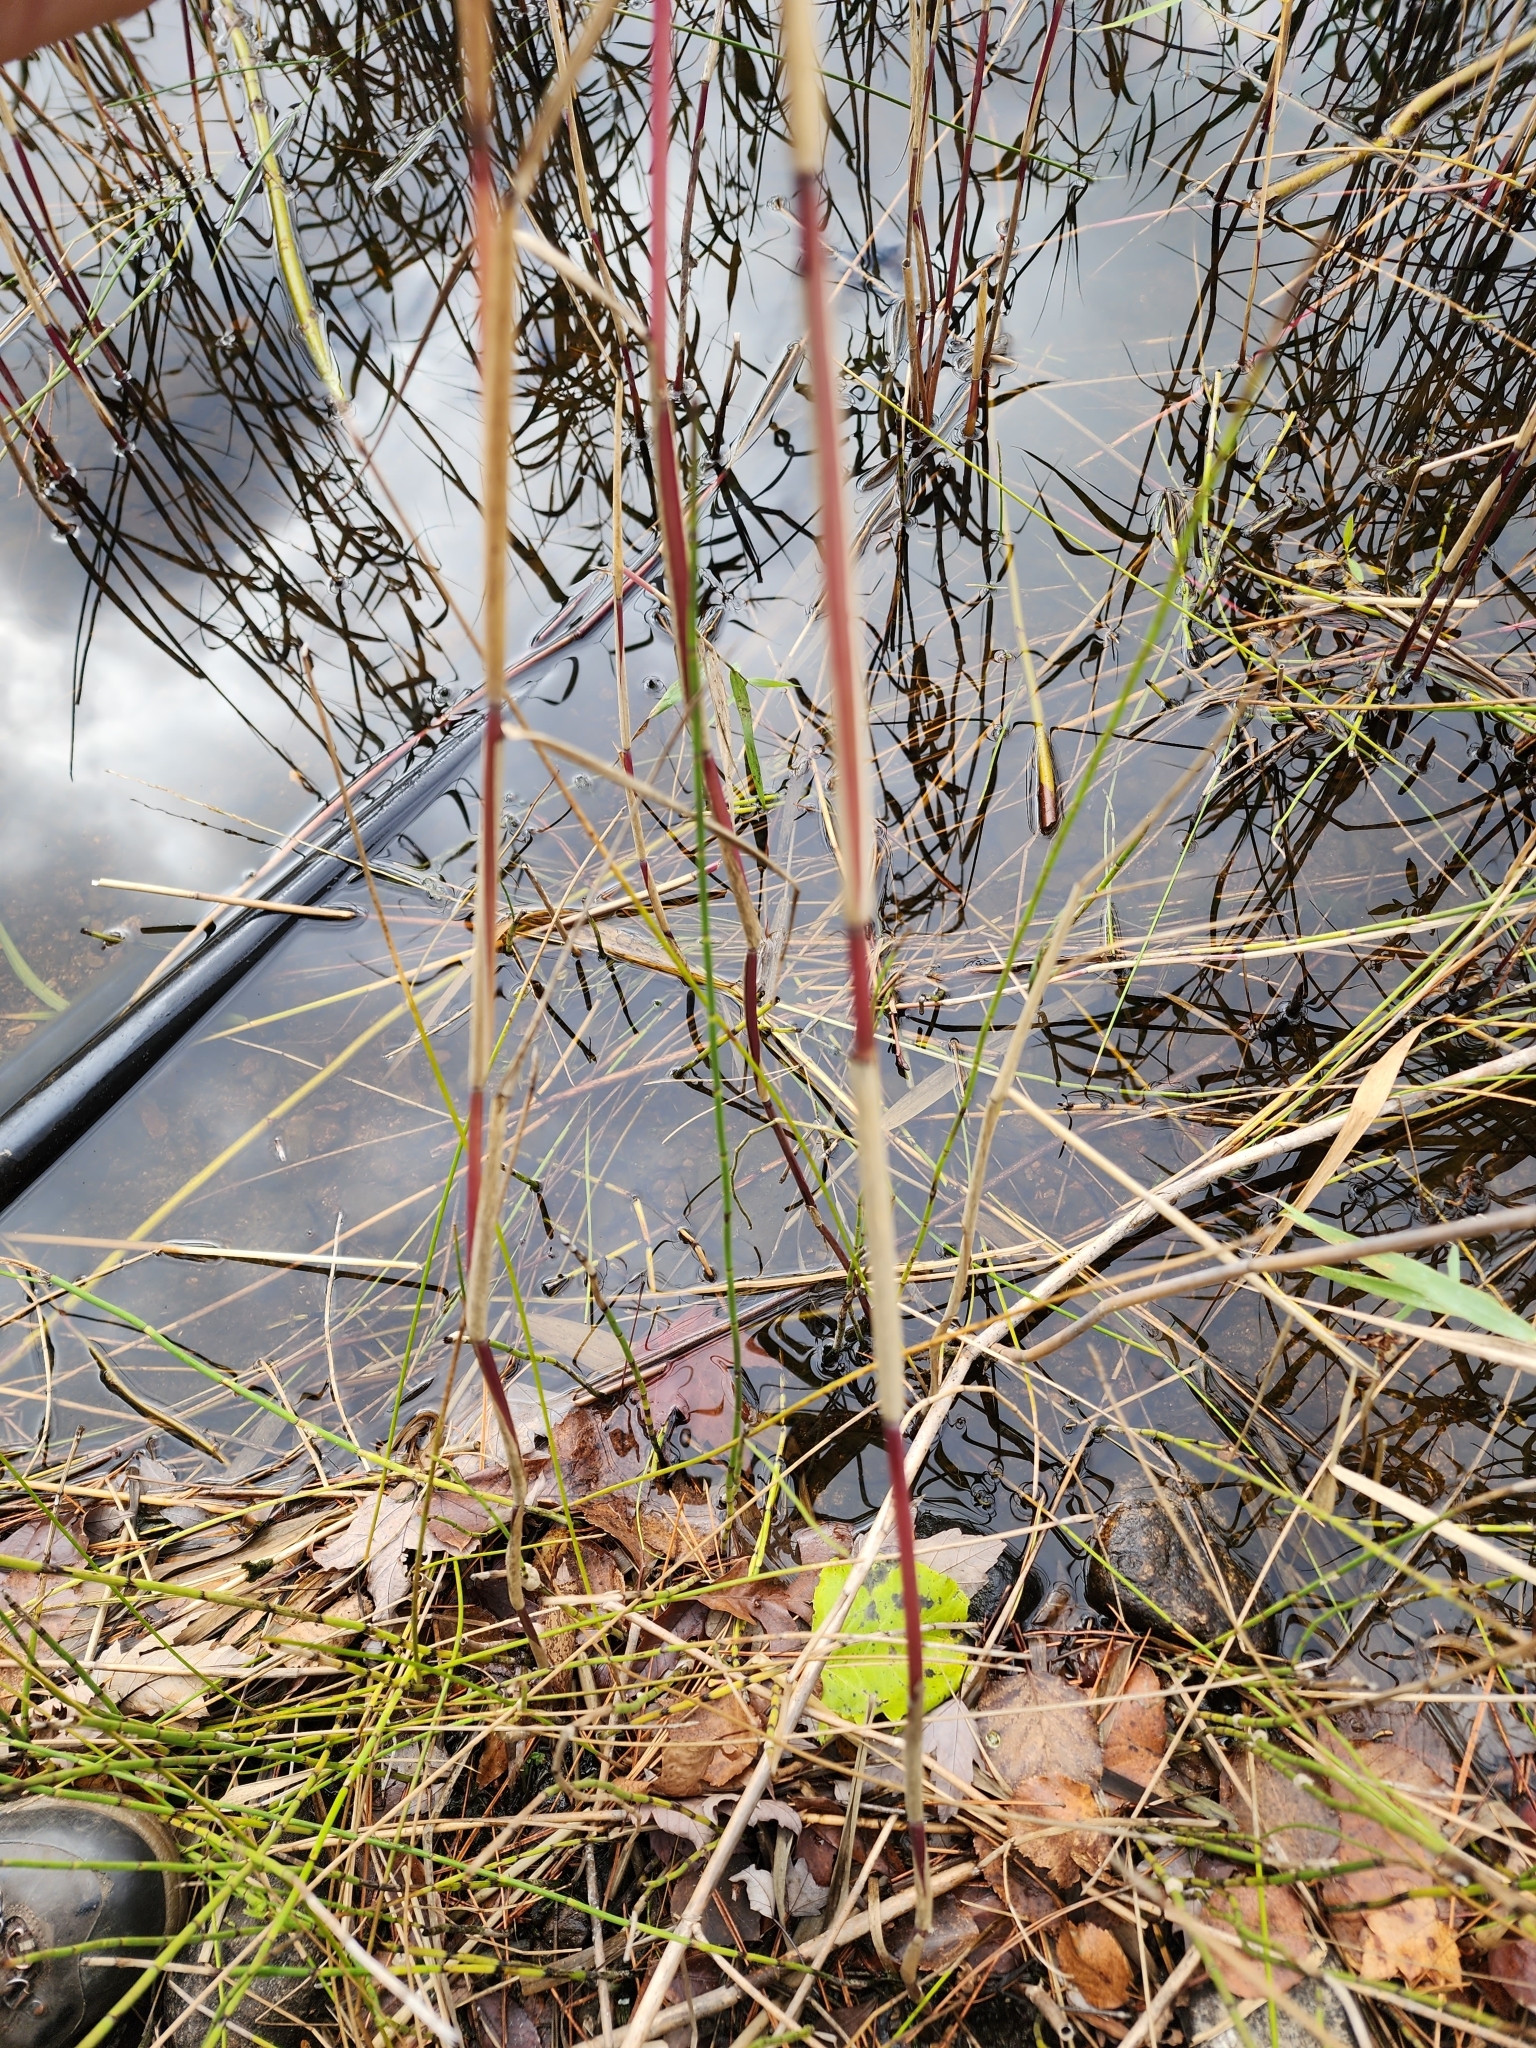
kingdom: Plantae
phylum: Tracheophyta
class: Liliopsida
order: Poales
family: Poaceae
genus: Phragmites
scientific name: Phragmites australis
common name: Common reed
